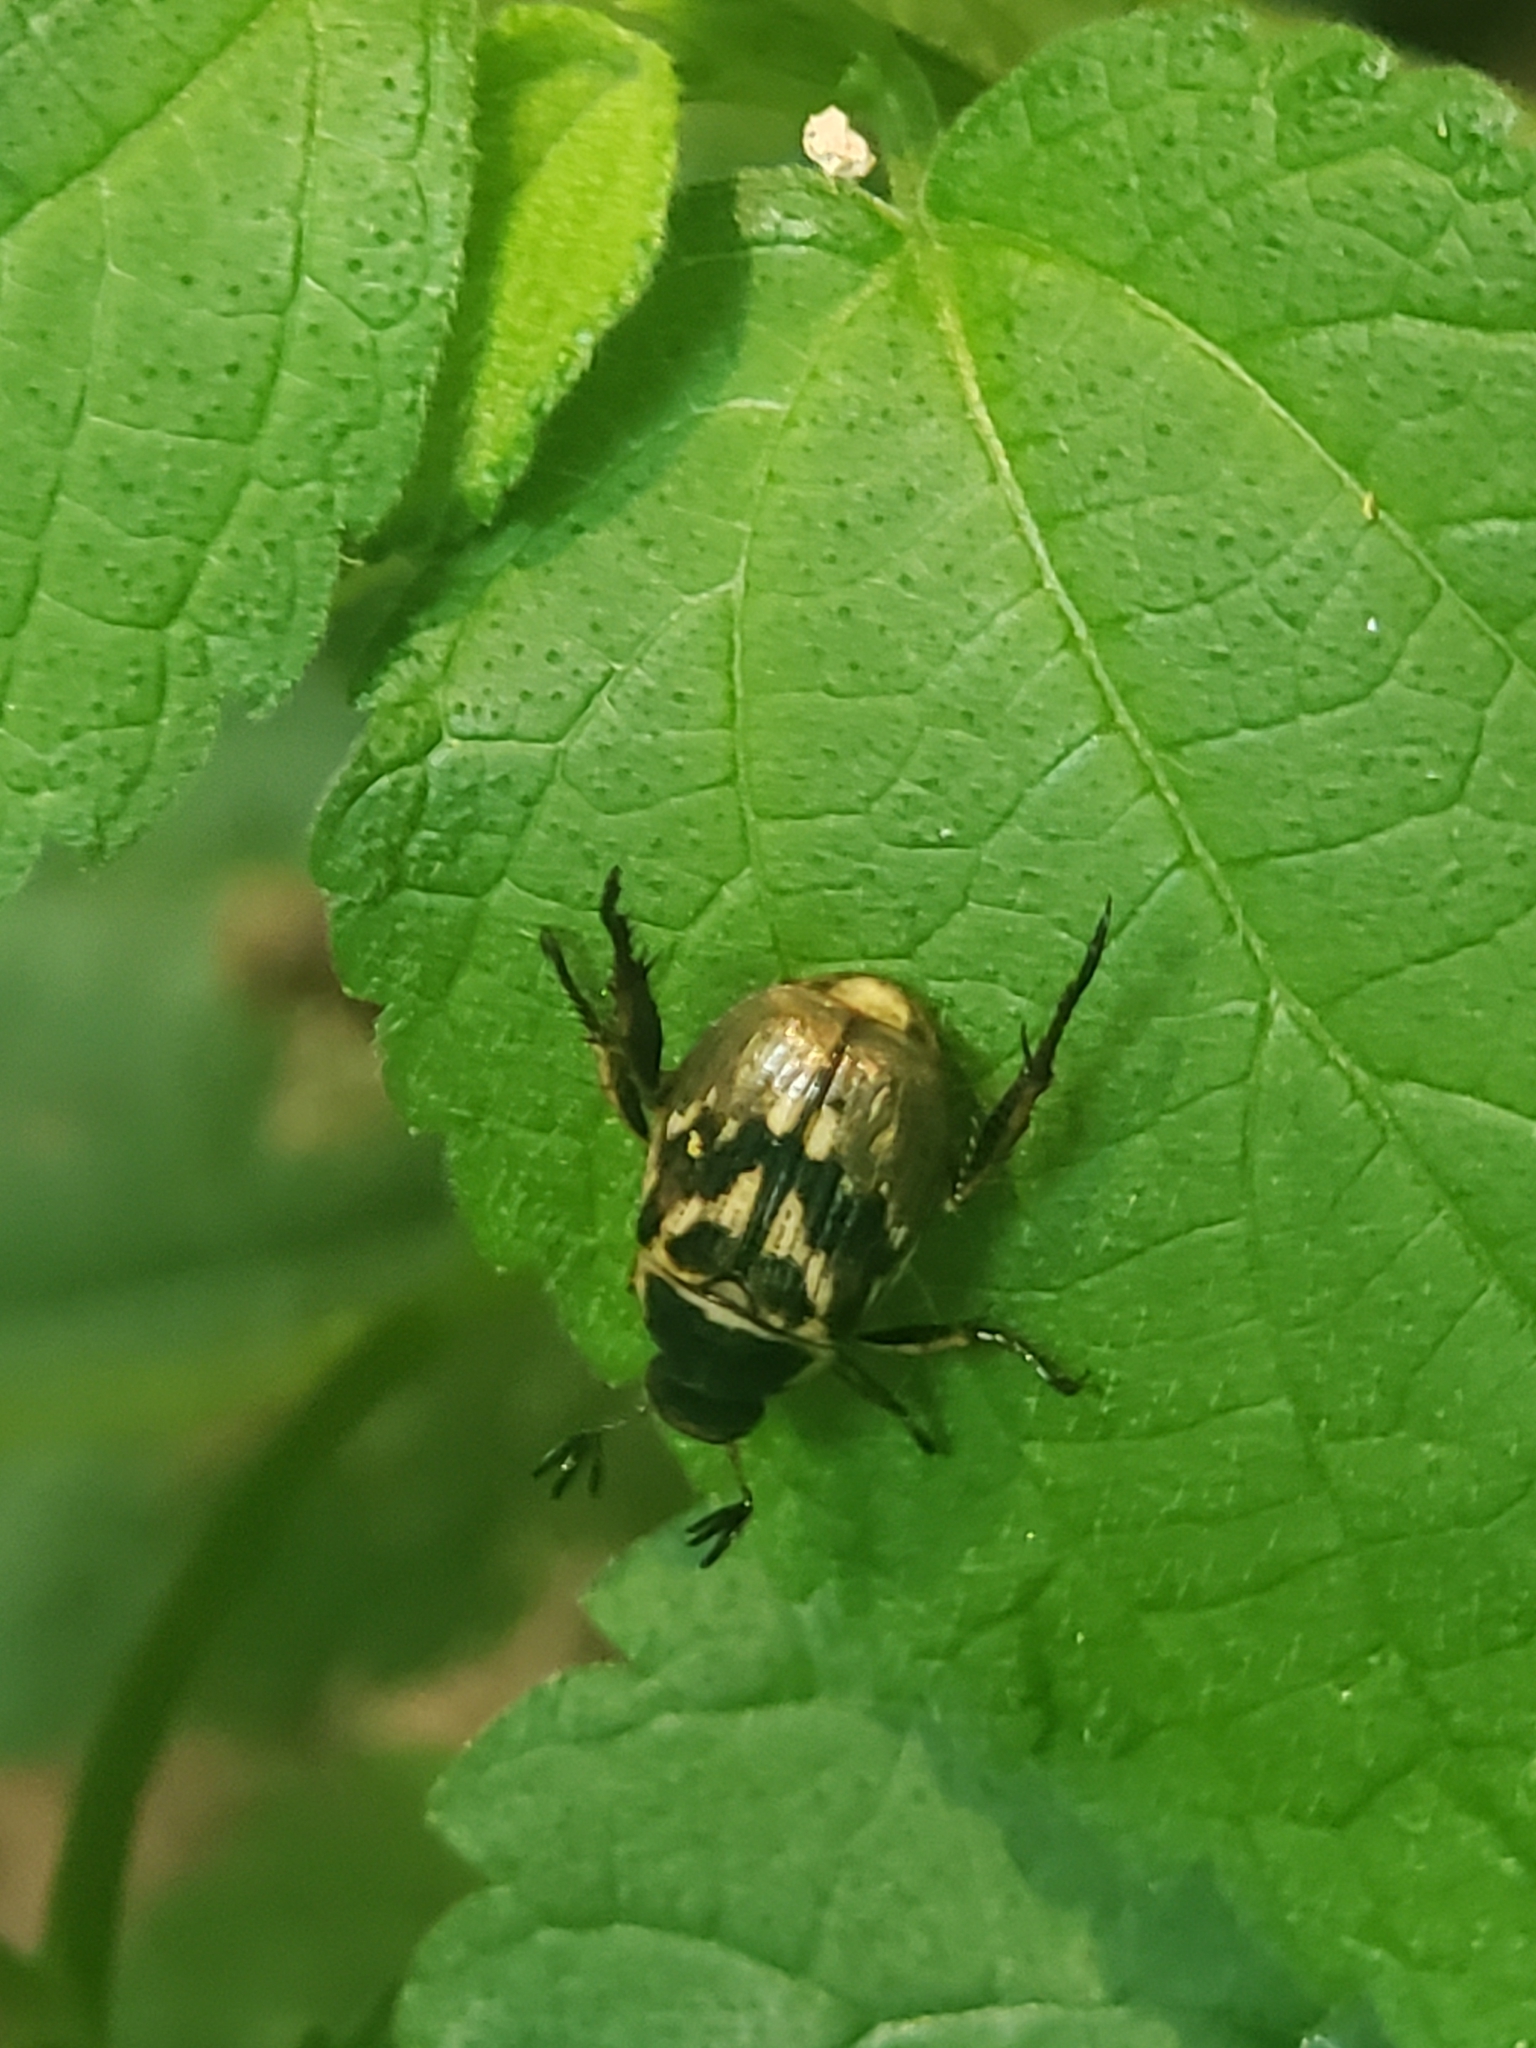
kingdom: Animalia
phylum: Arthropoda
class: Insecta
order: Coleoptera
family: Scarabaeidae
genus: Exomala
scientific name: Exomala orientalis
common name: Oriental beetle
